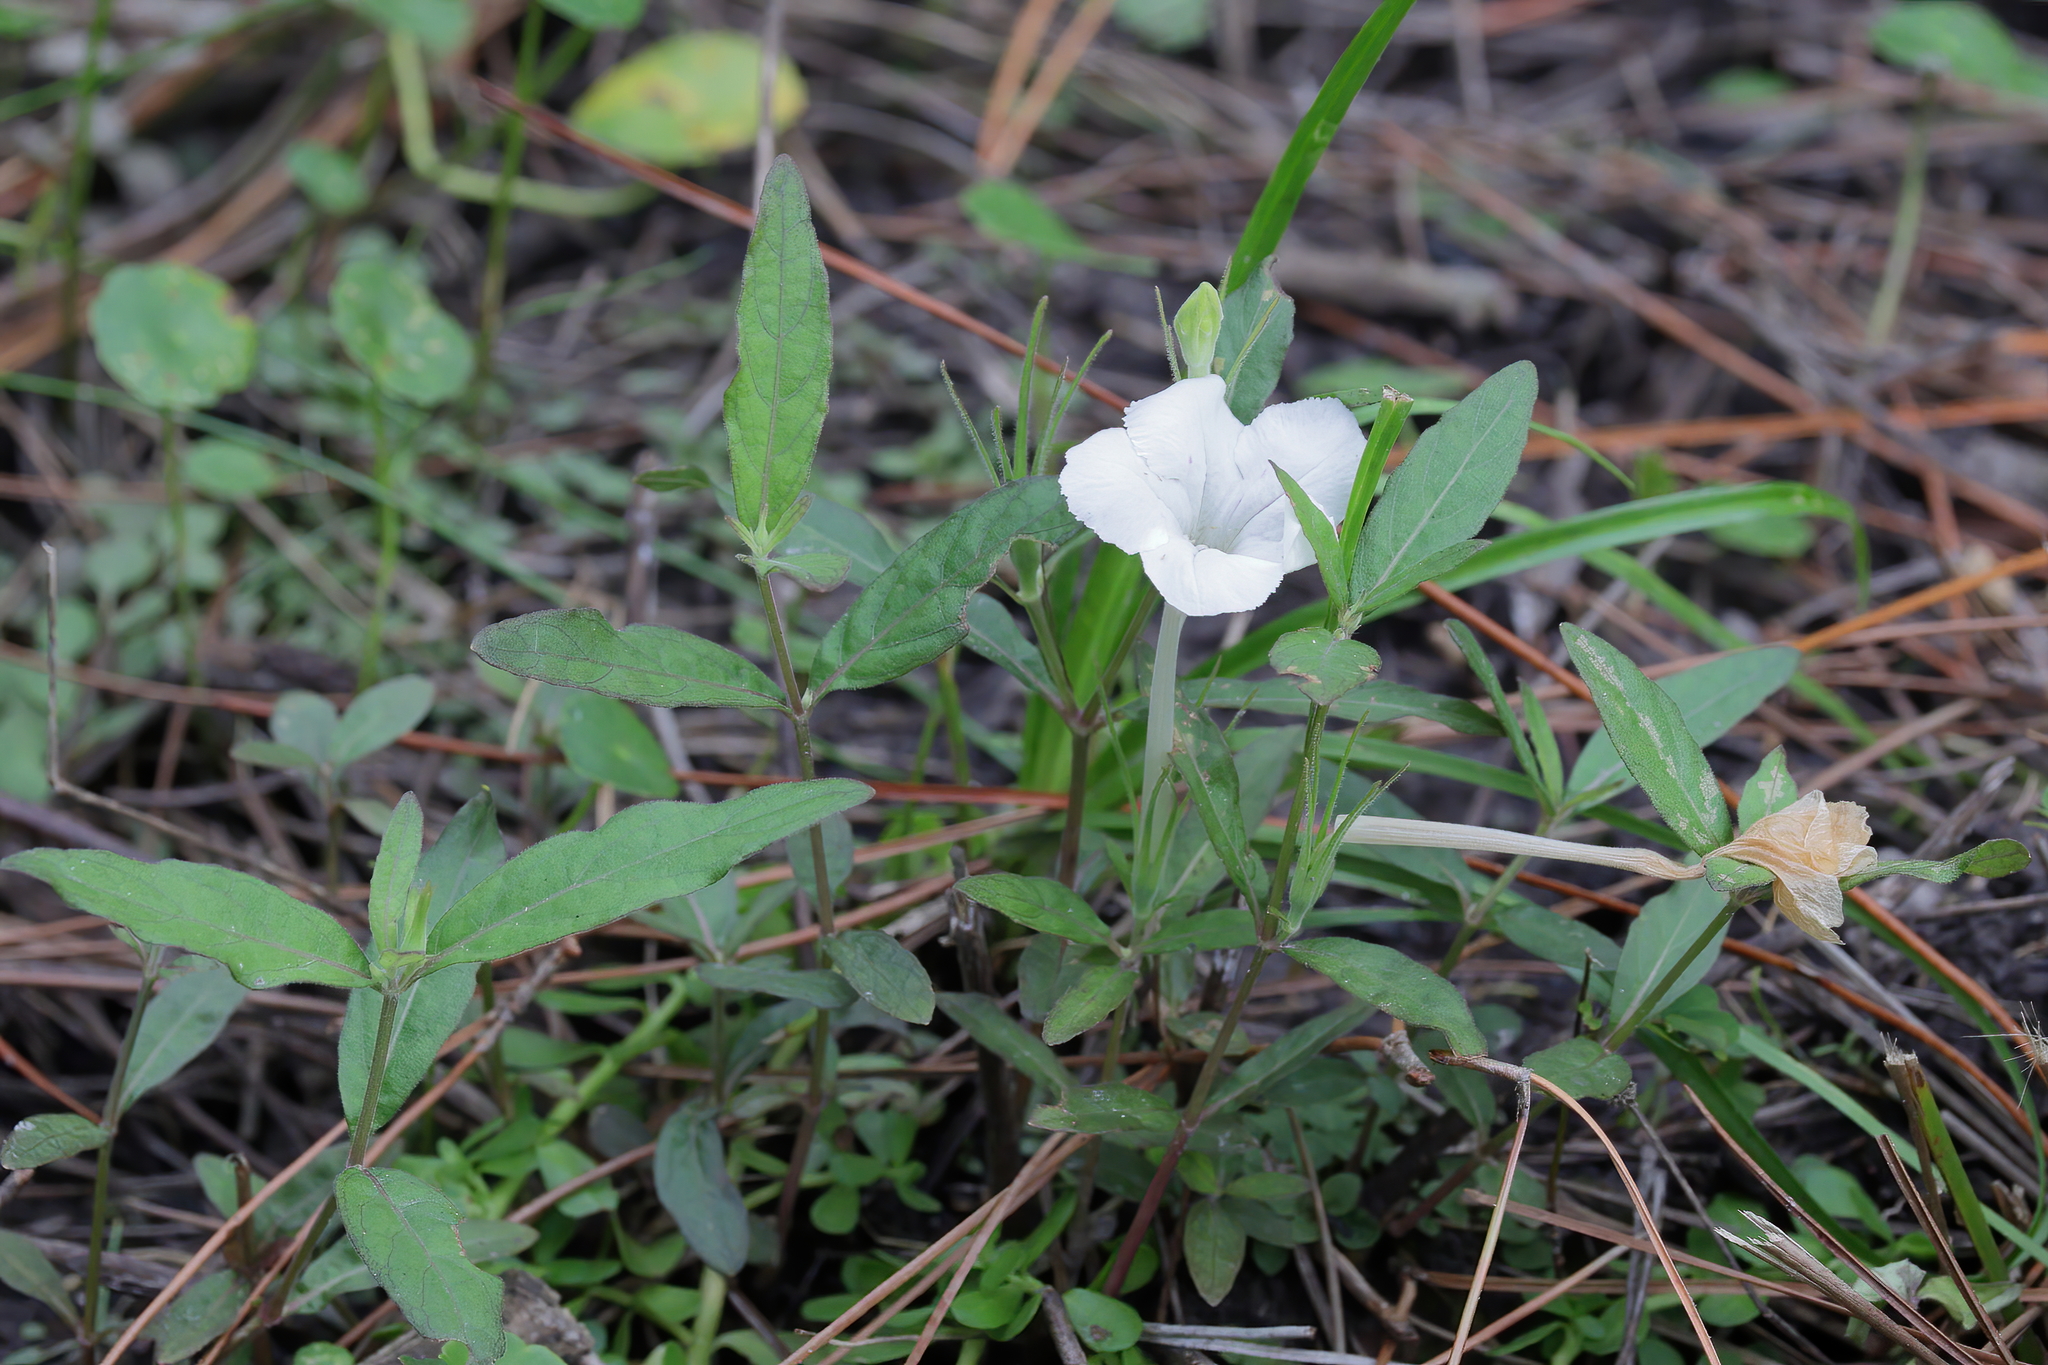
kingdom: Plantae
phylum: Tracheophyta
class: Magnoliopsida
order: Lamiales
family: Acanthaceae
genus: Ruellia
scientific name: Ruellia noctiflora
